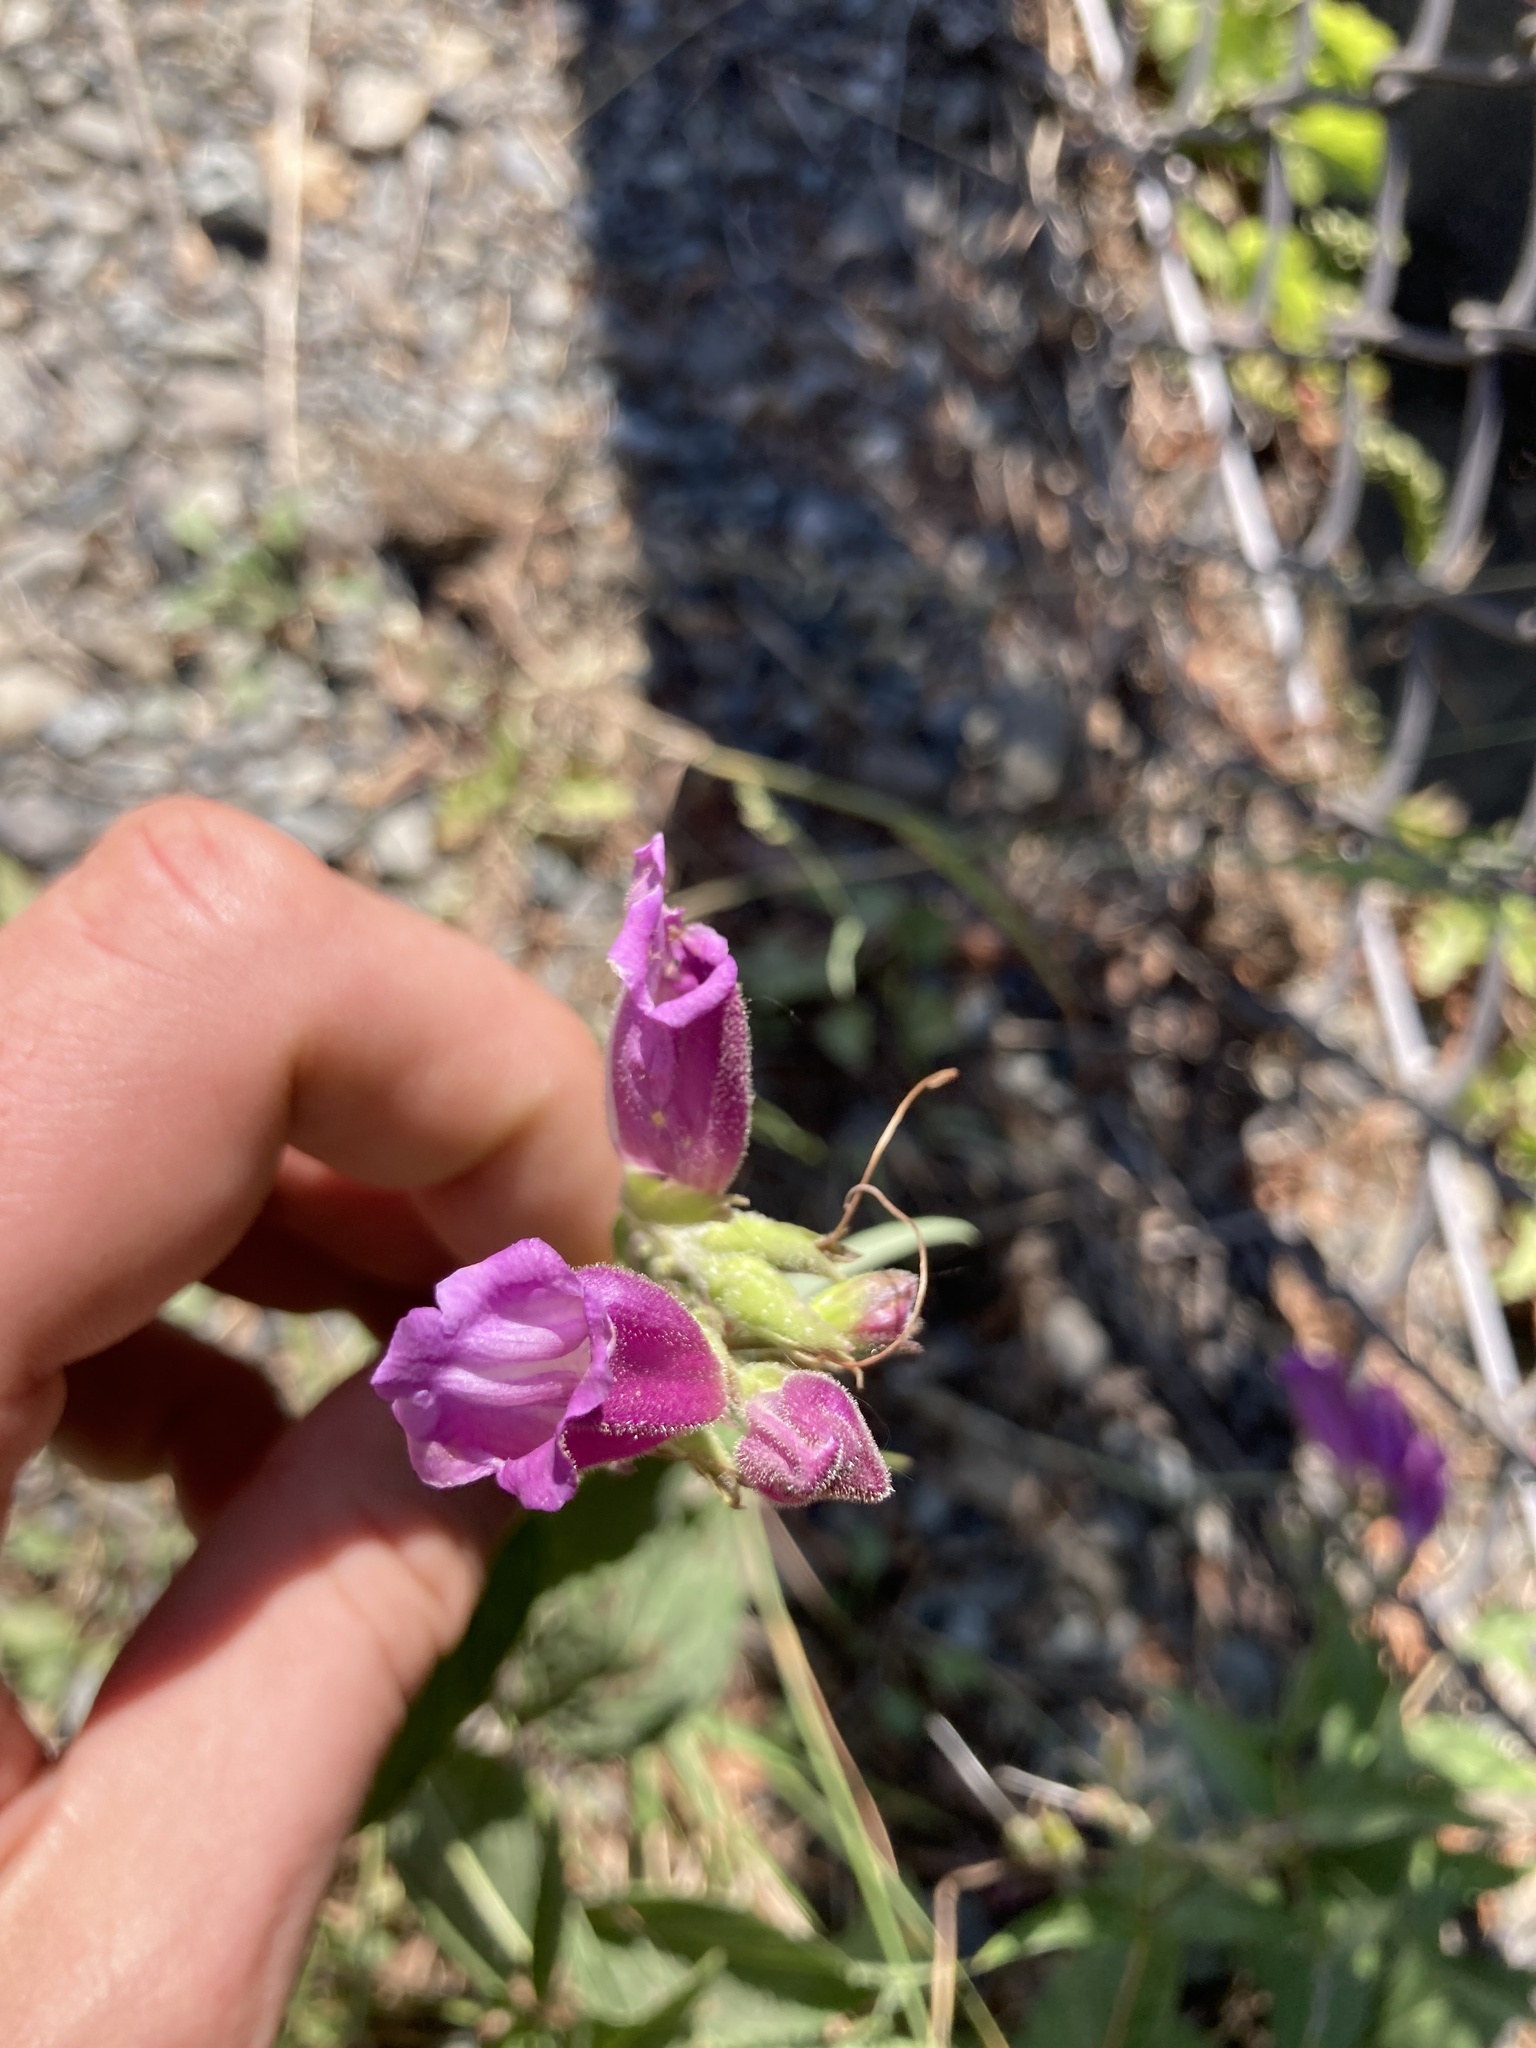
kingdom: Plantae
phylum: Tracheophyta
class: Magnoliopsida
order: Lamiales
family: Plantaginaceae
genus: Nothochelone
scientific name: Nothochelone nemorosa
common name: Woodland beardtongue
